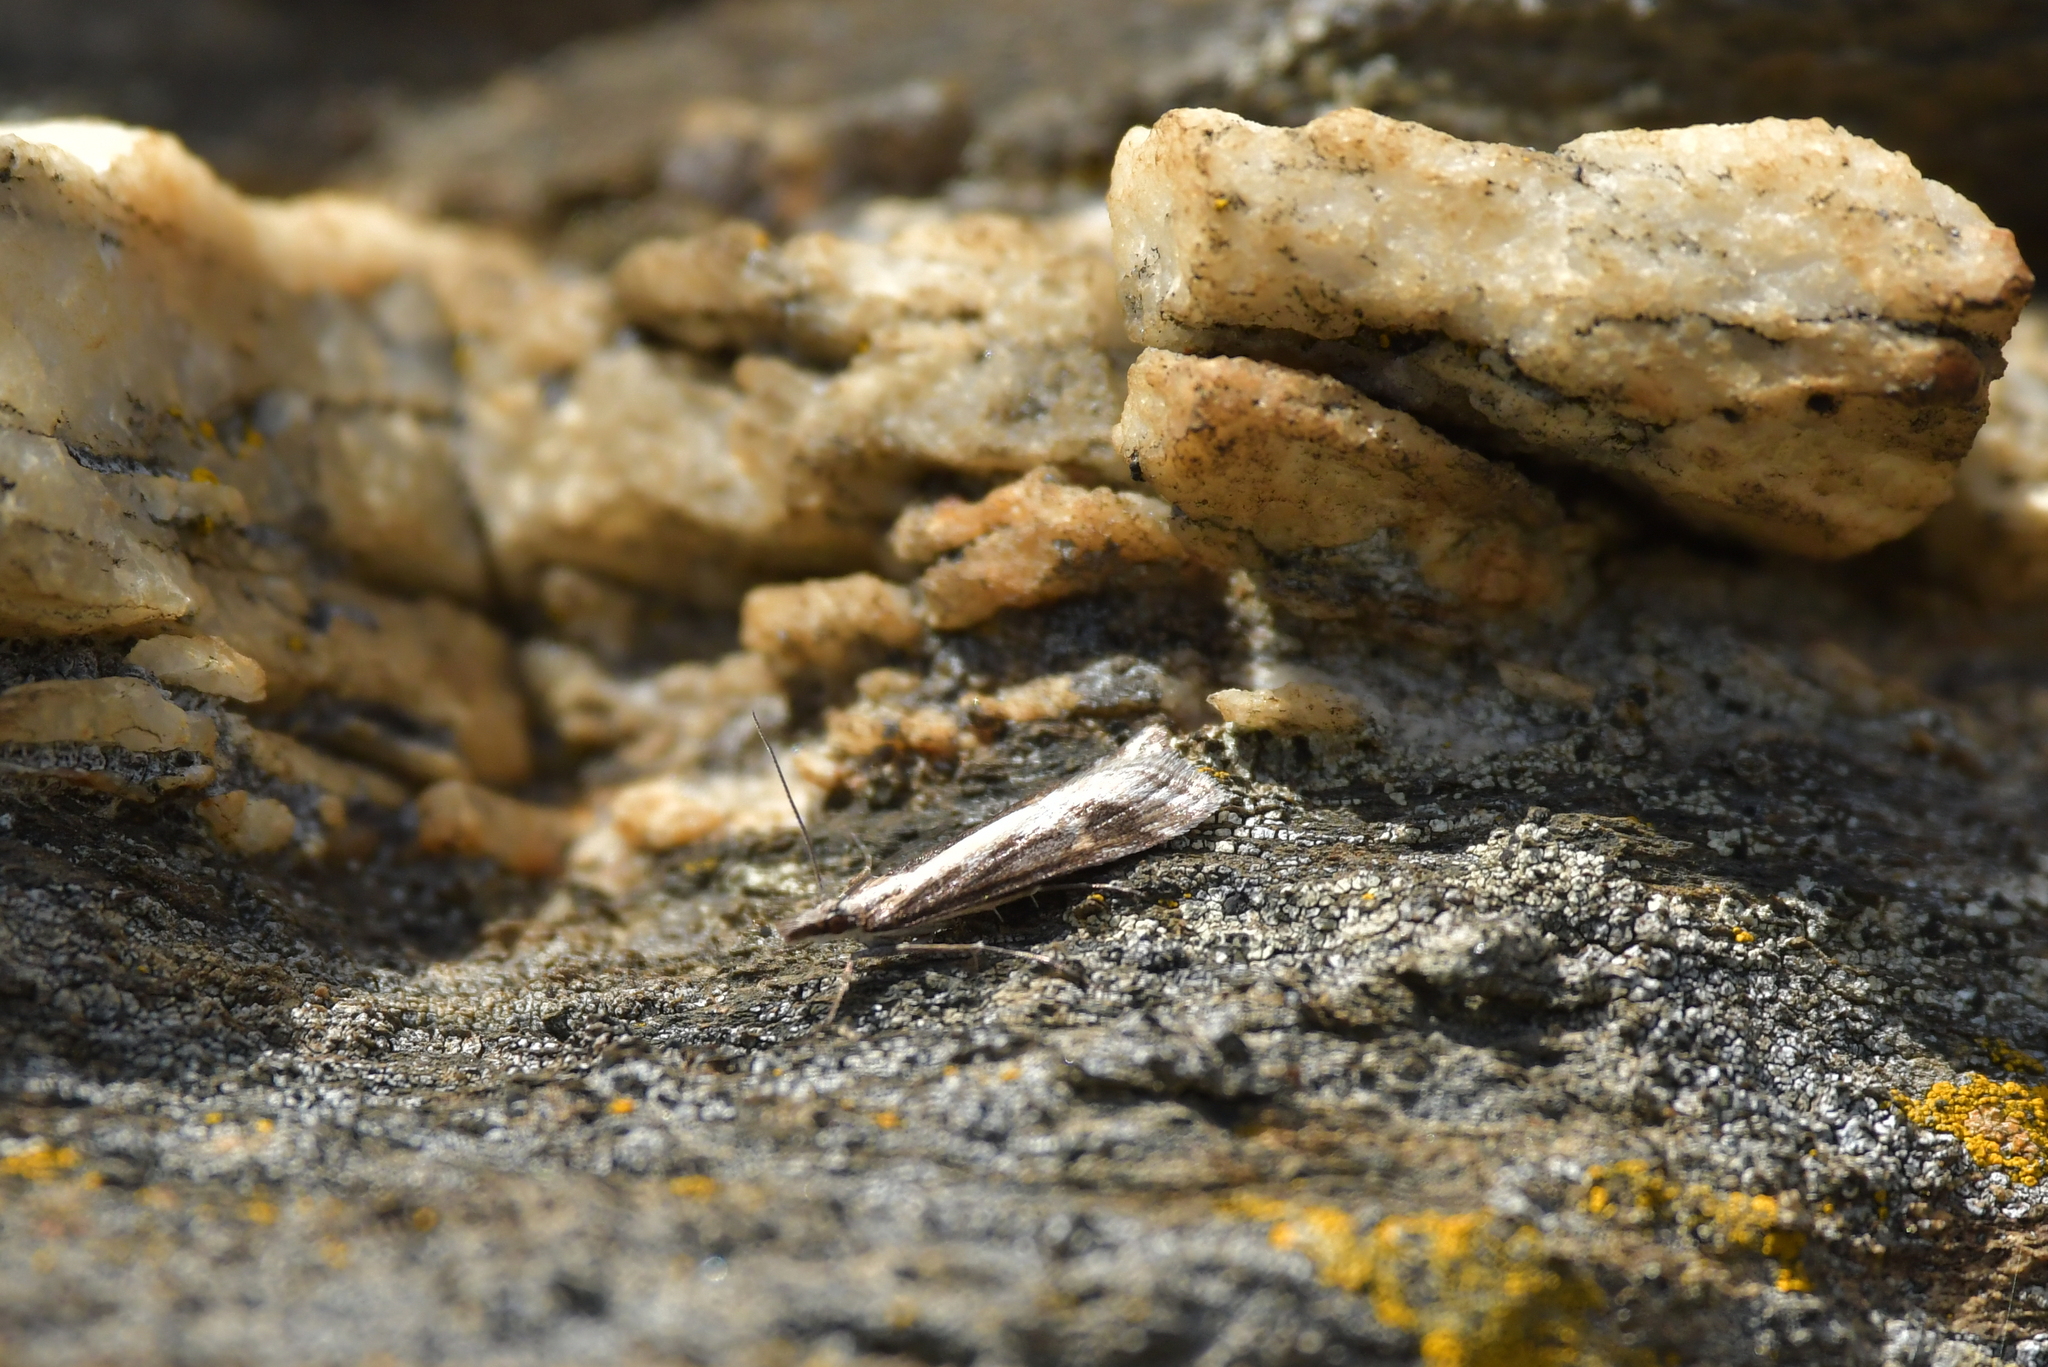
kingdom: Animalia
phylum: Arthropoda
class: Insecta
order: Lepidoptera
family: Crambidae
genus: Scoparia
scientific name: Scoparia exilis
